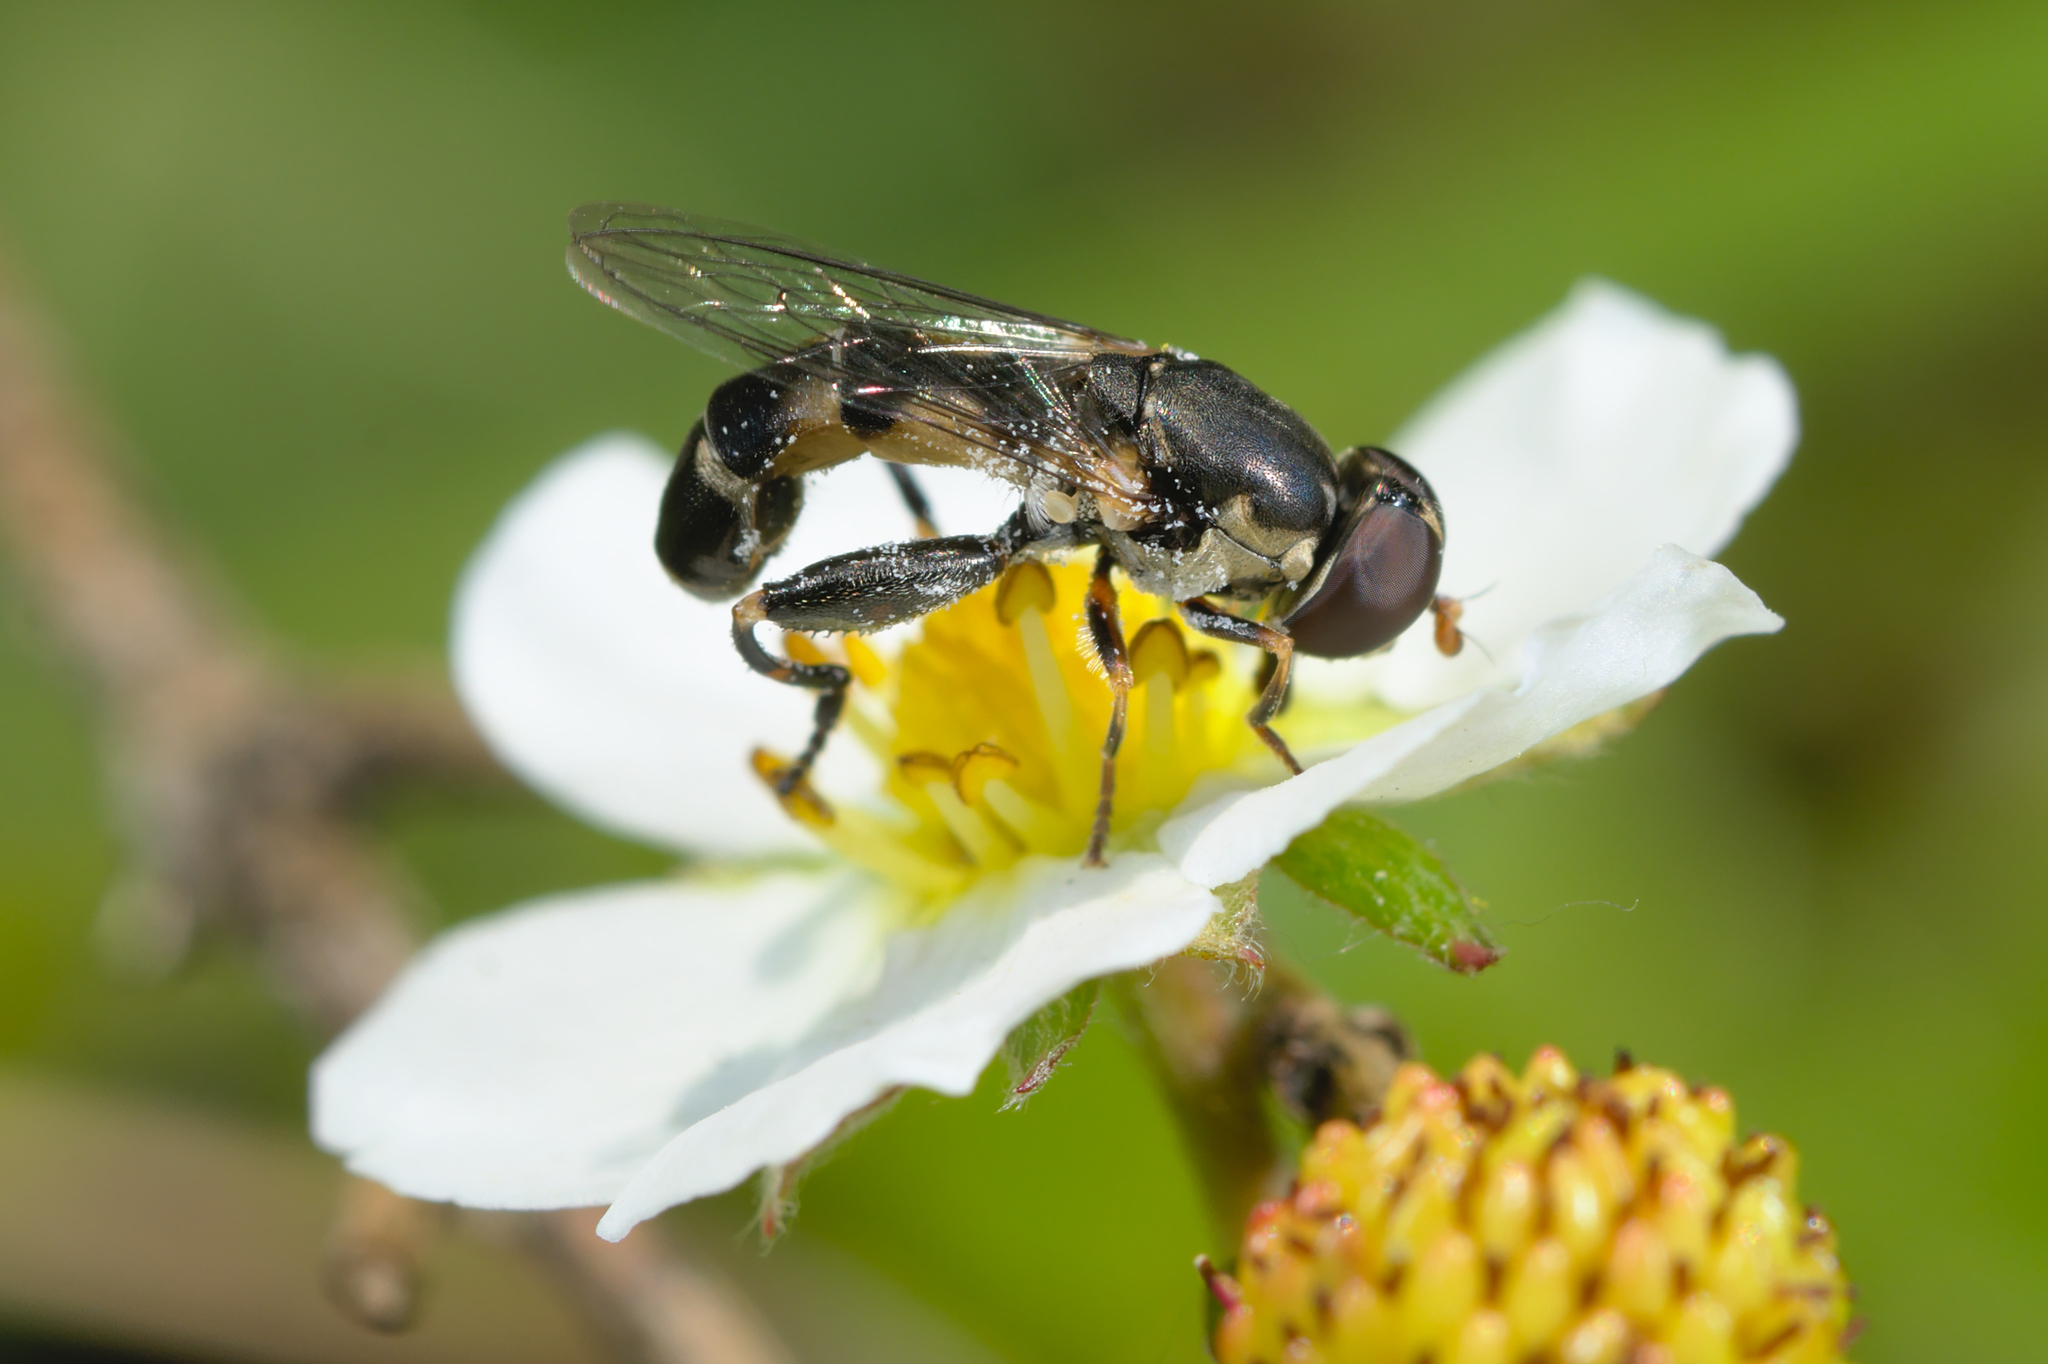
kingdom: Animalia
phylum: Arthropoda
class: Insecta
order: Diptera
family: Syrphidae
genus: Syritta
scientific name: Syritta pipiens
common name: Hover fly
